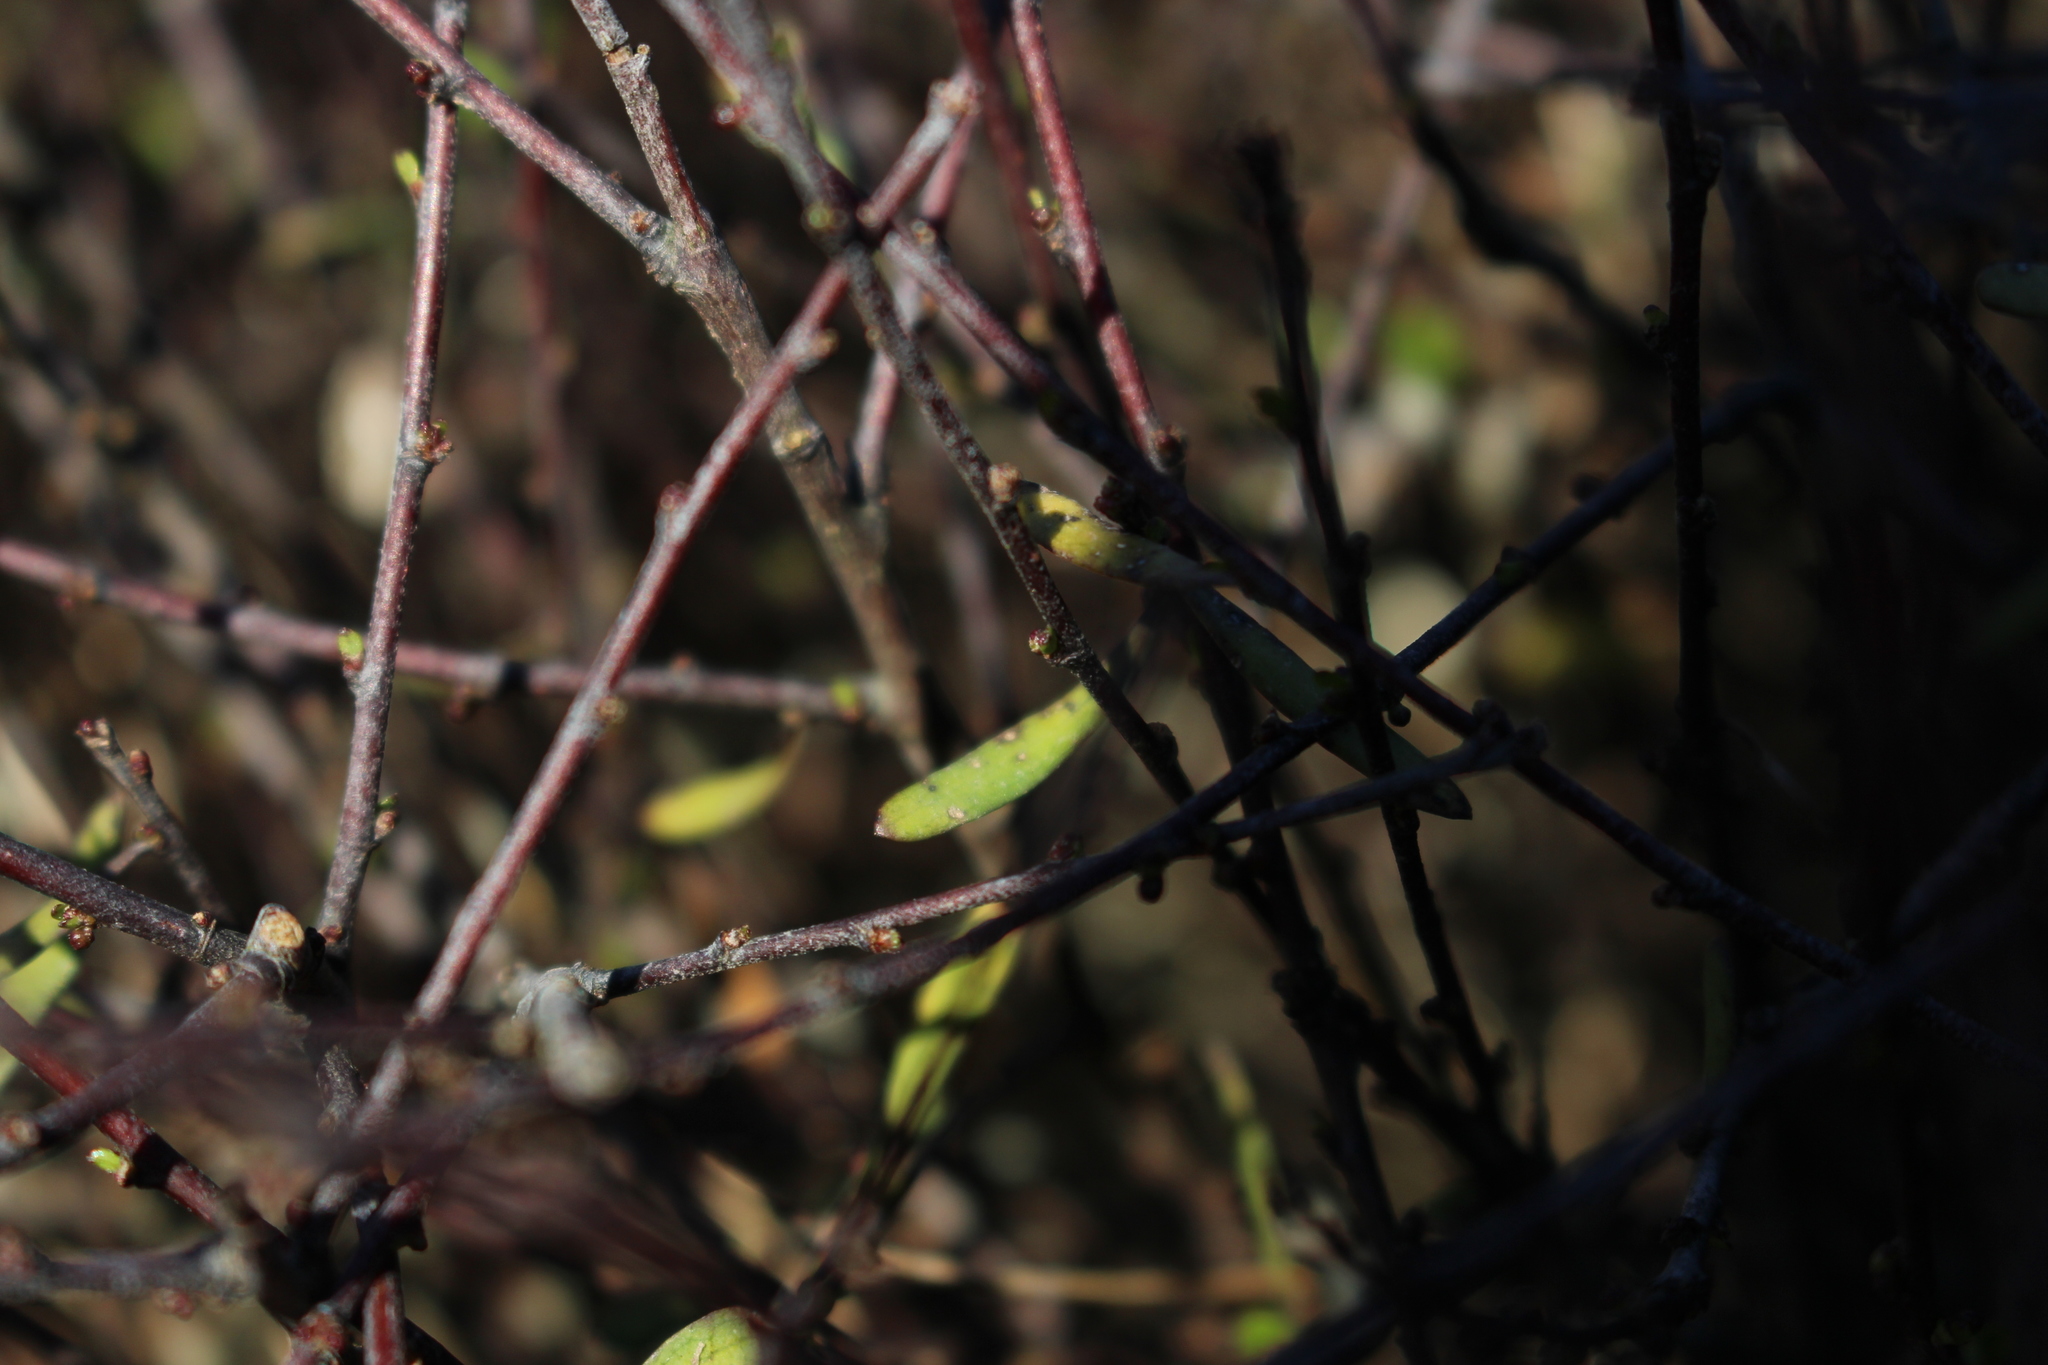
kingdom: Plantae
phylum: Tracheophyta
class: Magnoliopsida
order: Malvales
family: Malvaceae
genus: Plagianthus
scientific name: Plagianthus divaricatus
